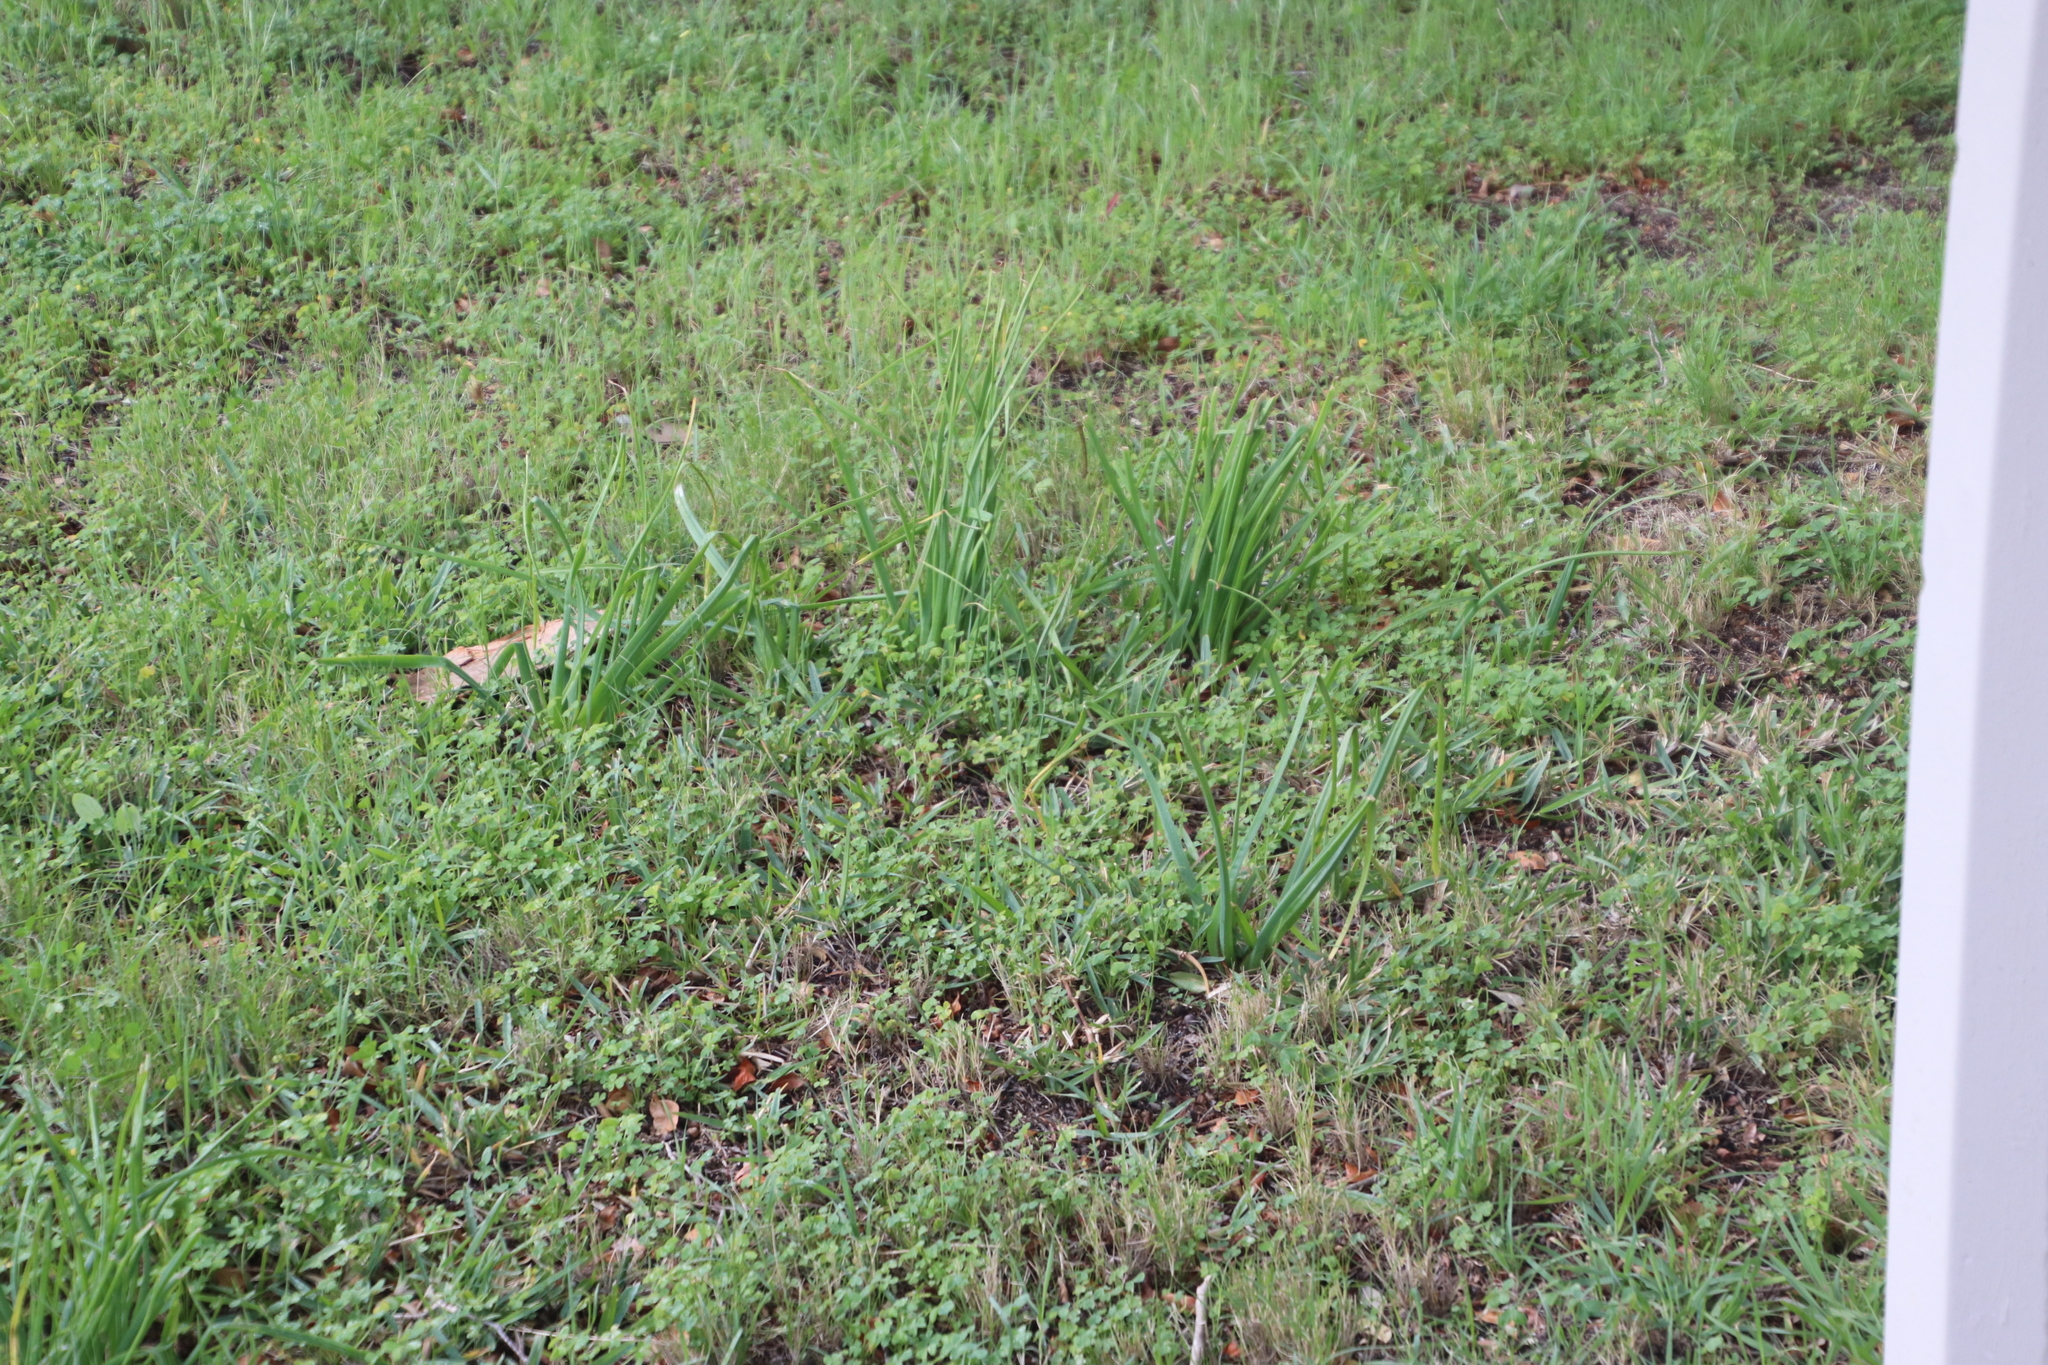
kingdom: Plantae
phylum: Tracheophyta
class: Liliopsida
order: Asparagales
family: Asphodelaceae
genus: Trachyandra
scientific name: Trachyandra ciliata
